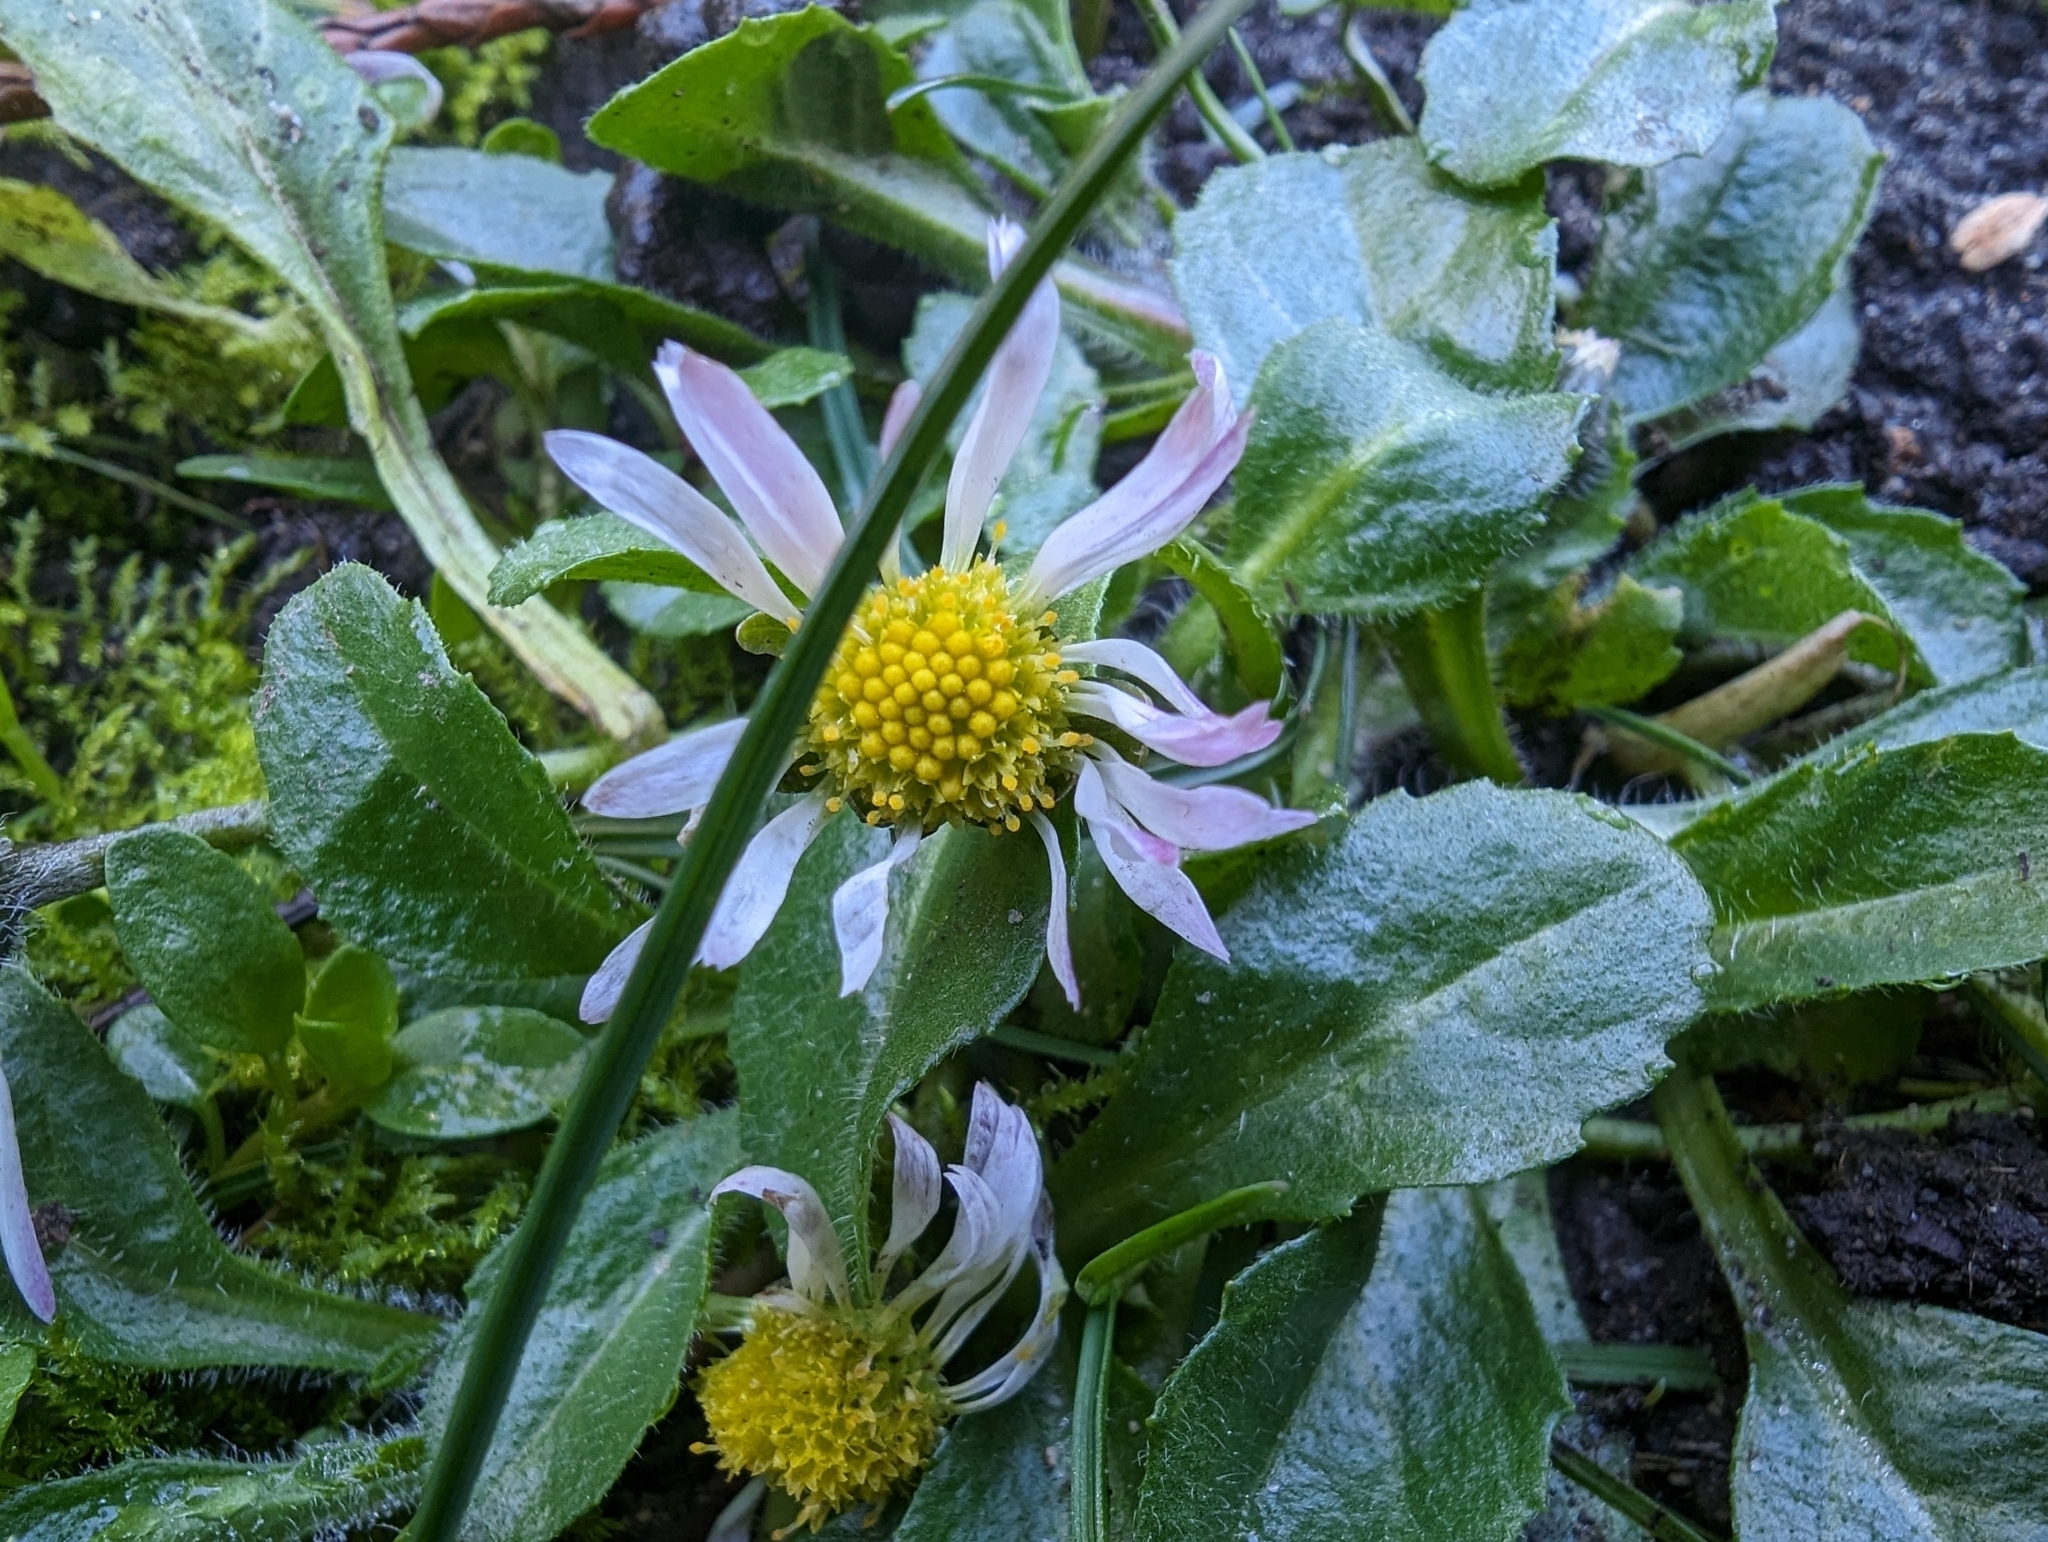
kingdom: Plantae
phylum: Tracheophyta
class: Magnoliopsida
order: Asterales
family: Asteraceae
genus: Bellis
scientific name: Bellis perennis
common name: Lawndaisy
